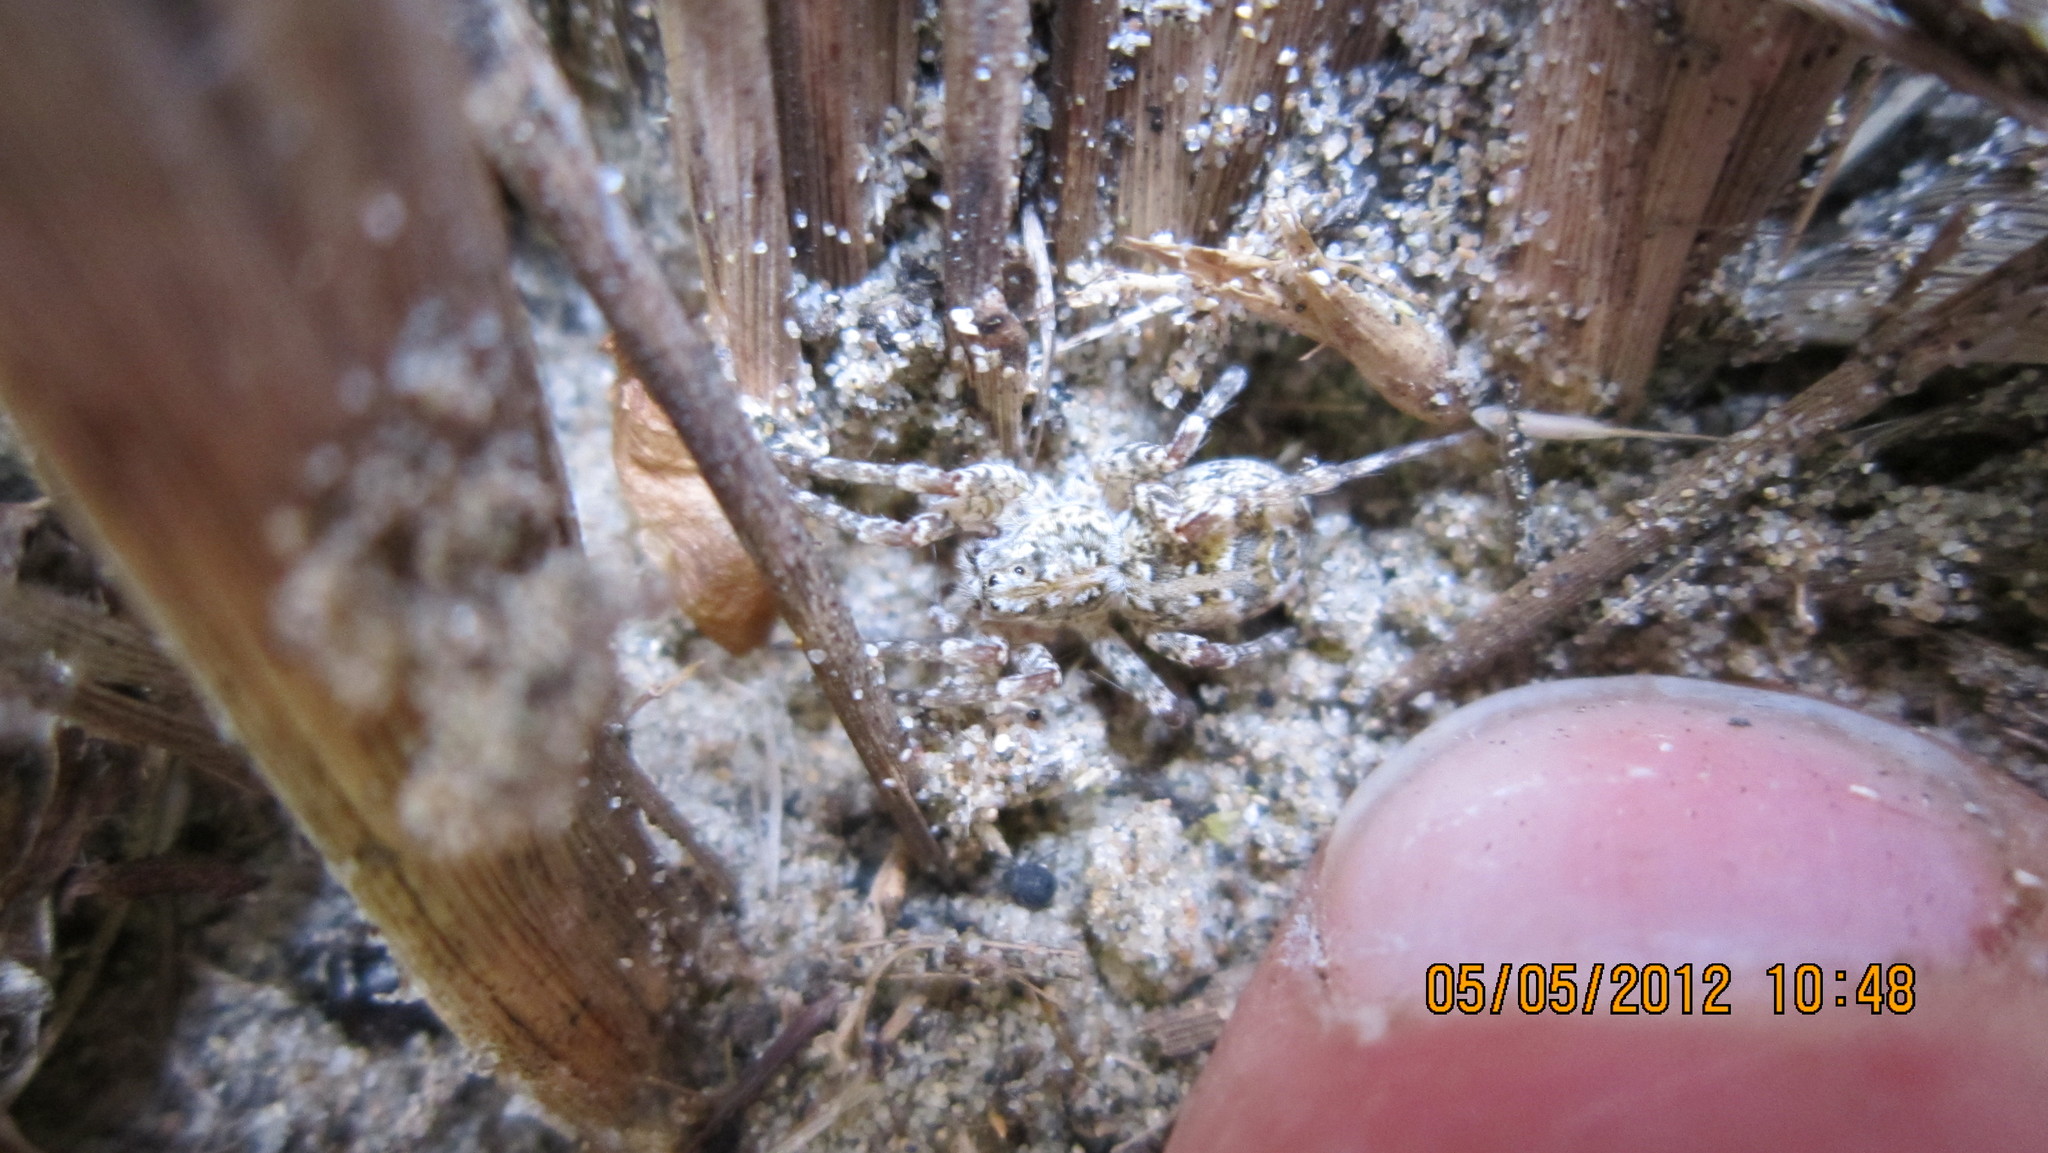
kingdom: Animalia
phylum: Arthropoda
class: Arachnida
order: Araneae
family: Lycosidae
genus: Anoteropsis
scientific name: Anoteropsis litoralis
